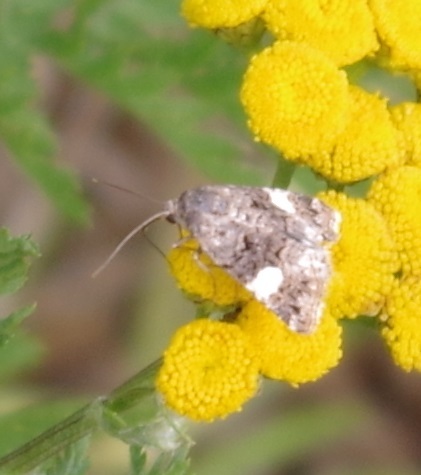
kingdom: Animalia
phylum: Arthropoda
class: Insecta
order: Lepidoptera
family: Erebidae
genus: Tyta
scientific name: Tyta luctuosa
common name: Four-spotted
